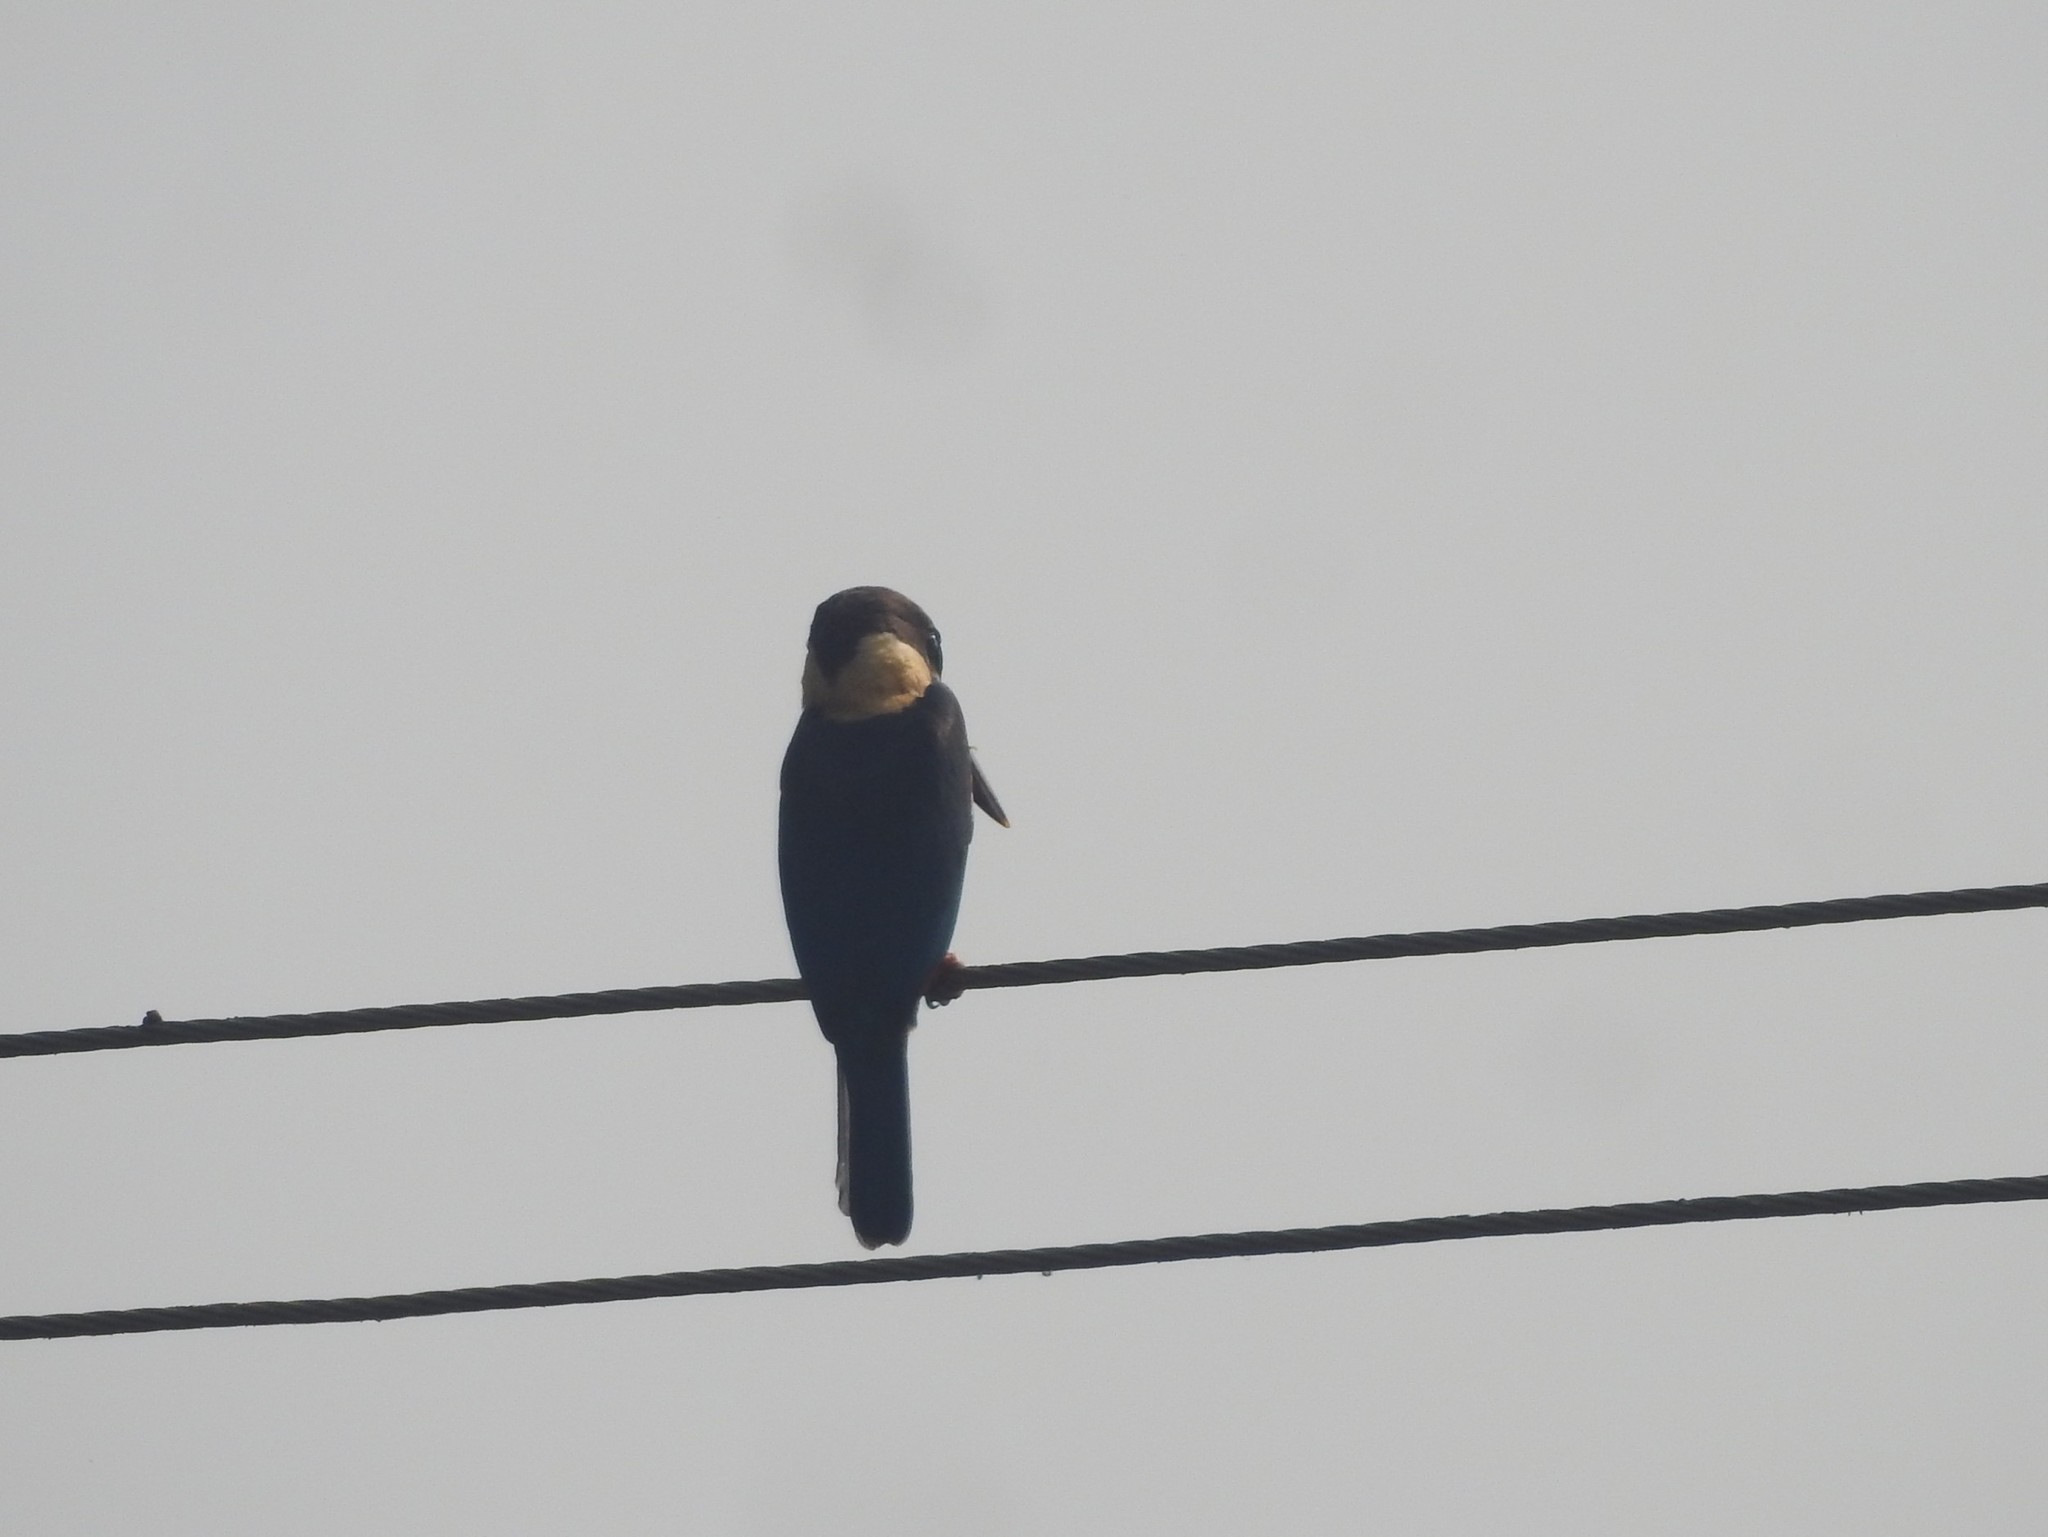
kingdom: Animalia
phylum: Chordata
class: Aves
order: Coraciiformes
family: Alcedinidae
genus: Pelargopsis
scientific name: Pelargopsis capensis
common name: Stork-billed kingfisher
